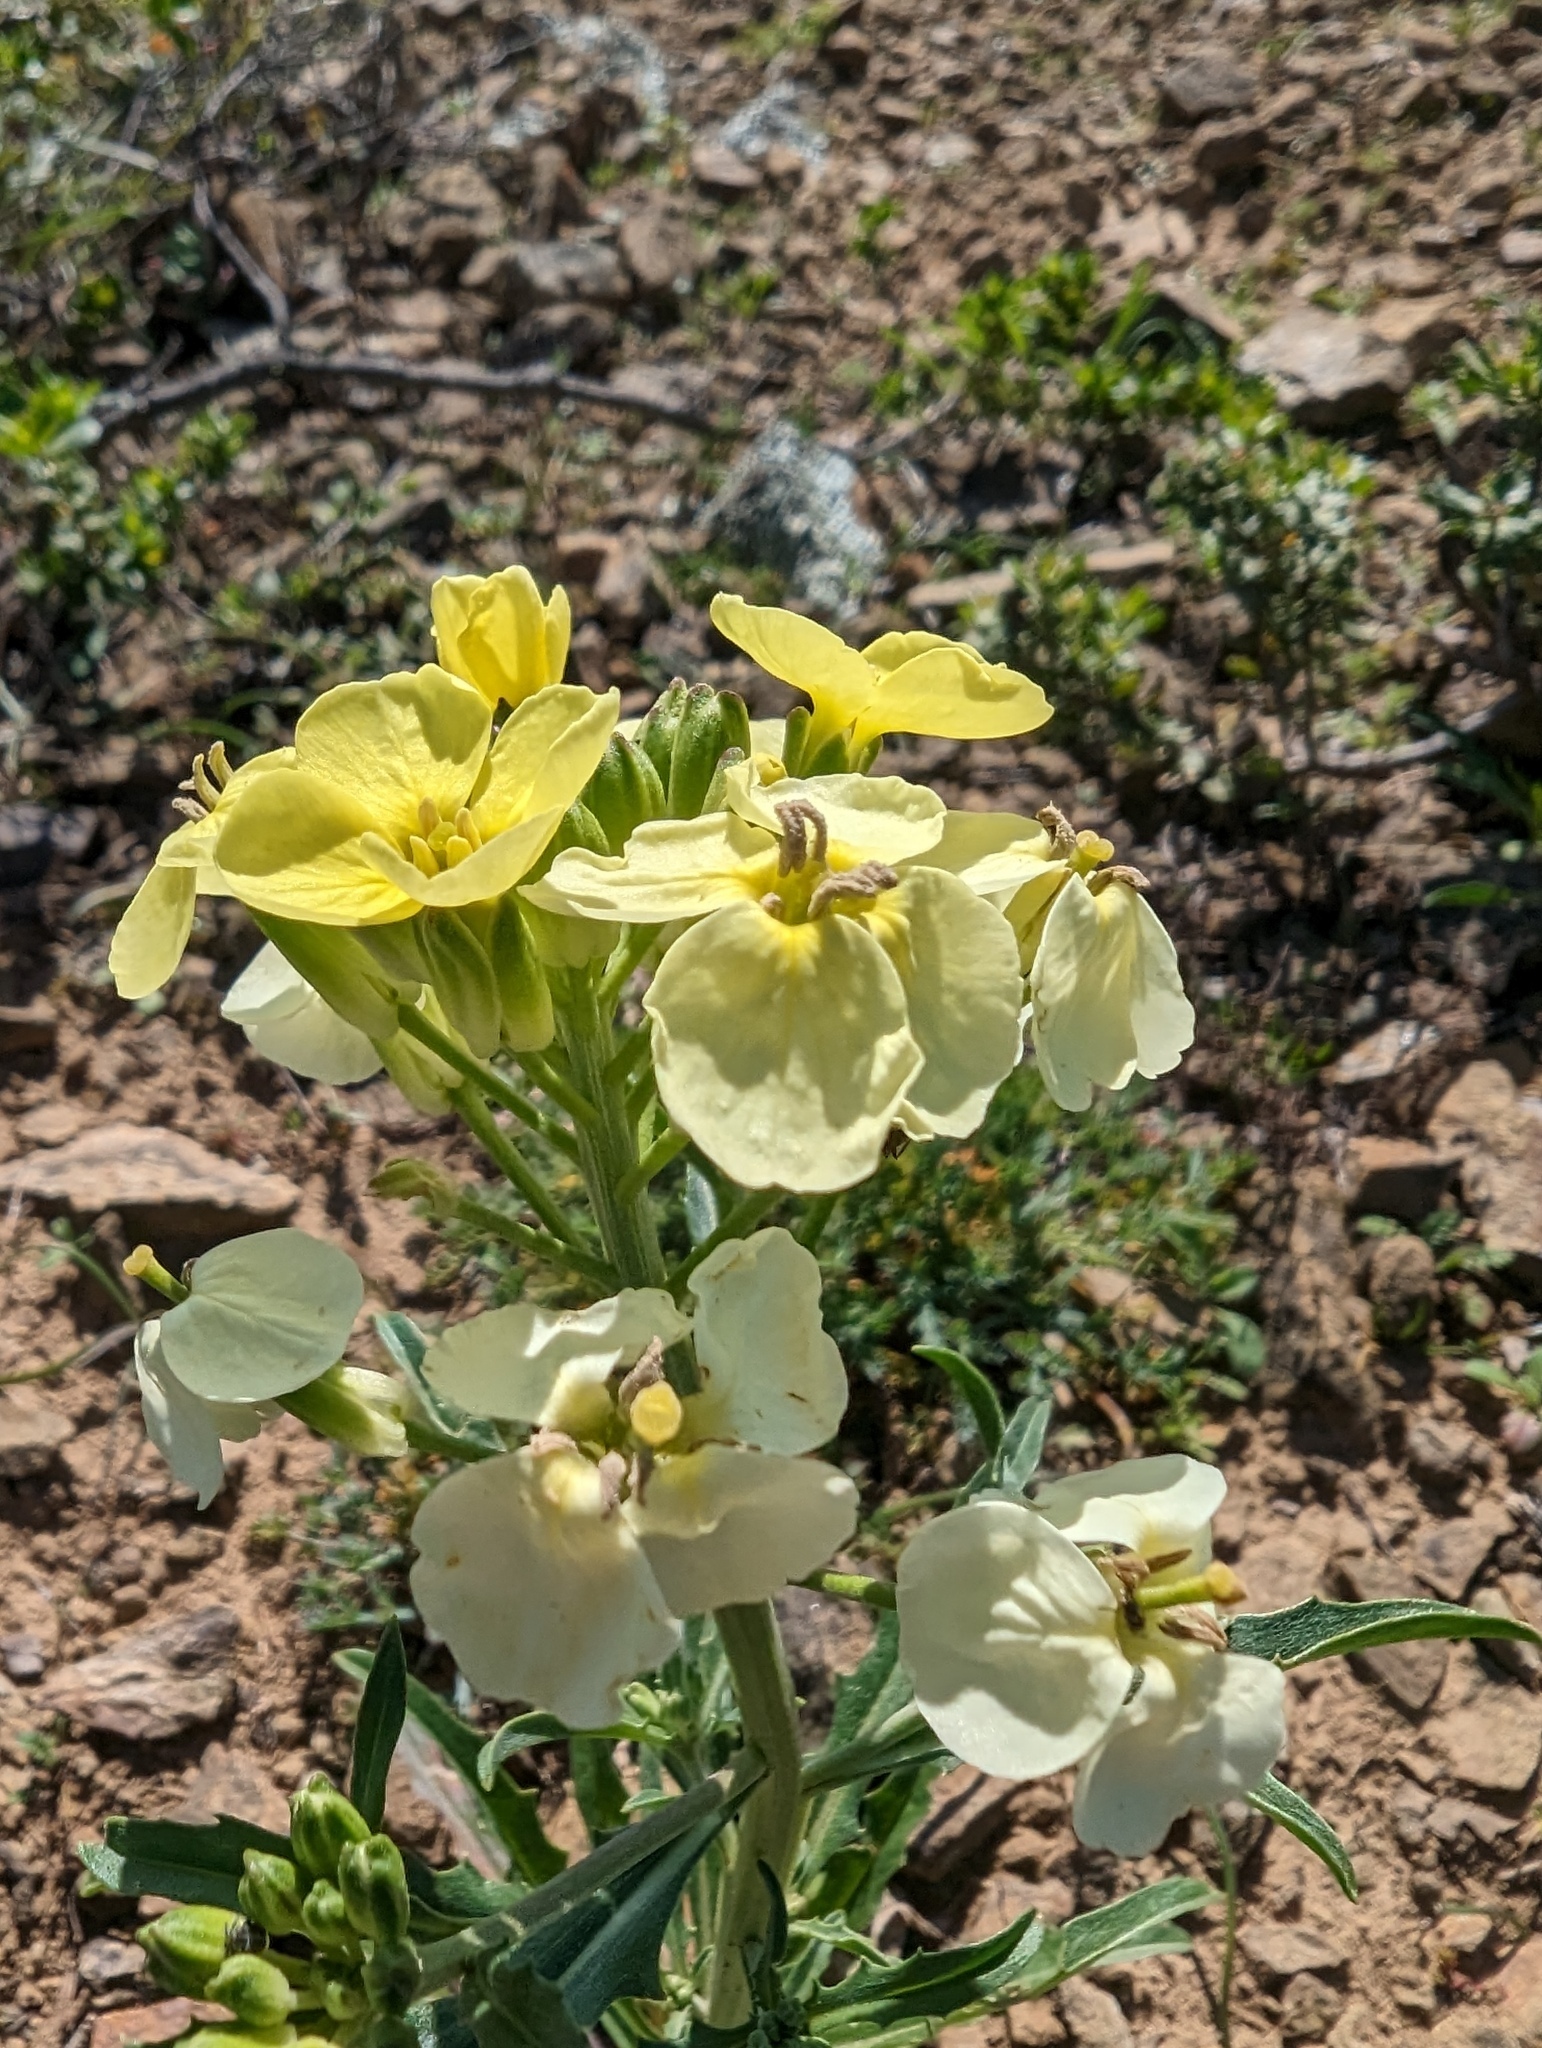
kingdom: Plantae
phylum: Tracheophyta
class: Magnoliopsida
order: Brassicales
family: Brassicaceae
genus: Erysimum
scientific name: Erysimum franciscanum
